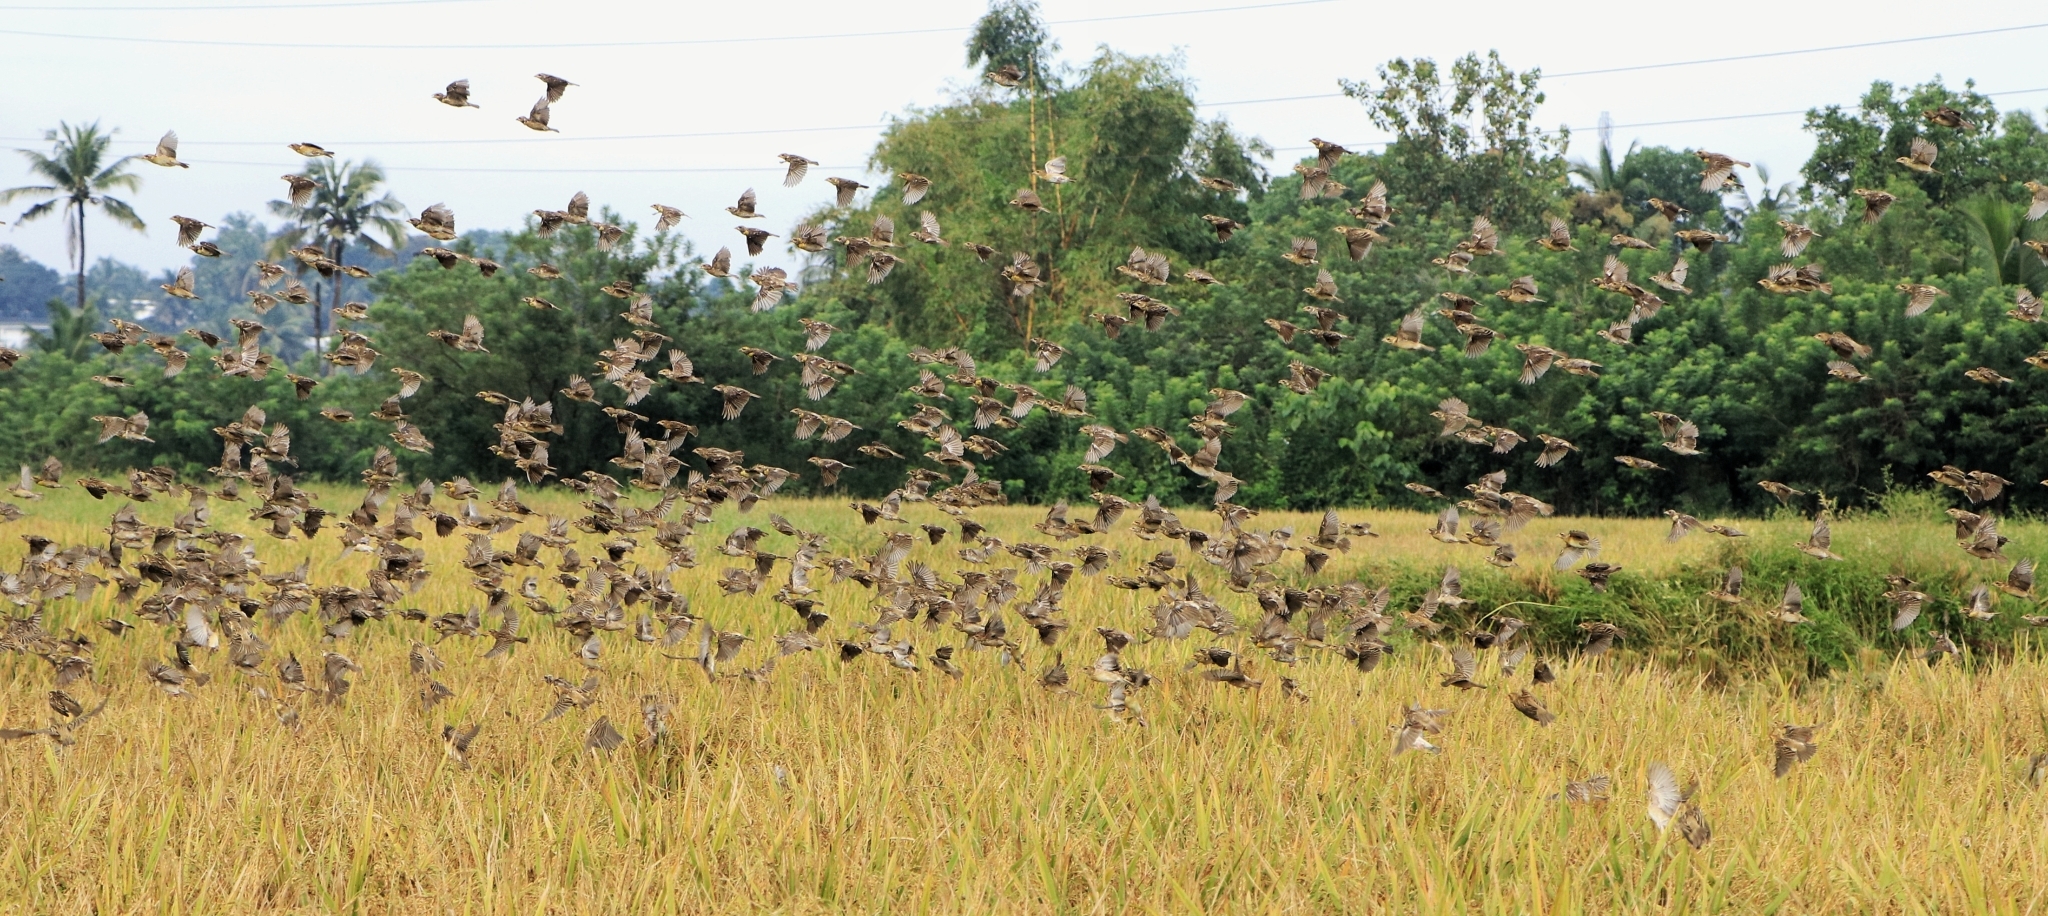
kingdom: Animalia
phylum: Chordata
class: Aves
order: Passeriformes
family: Ploceidae
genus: Ploceus
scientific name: Ploceus philippinus
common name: Baya weaver
